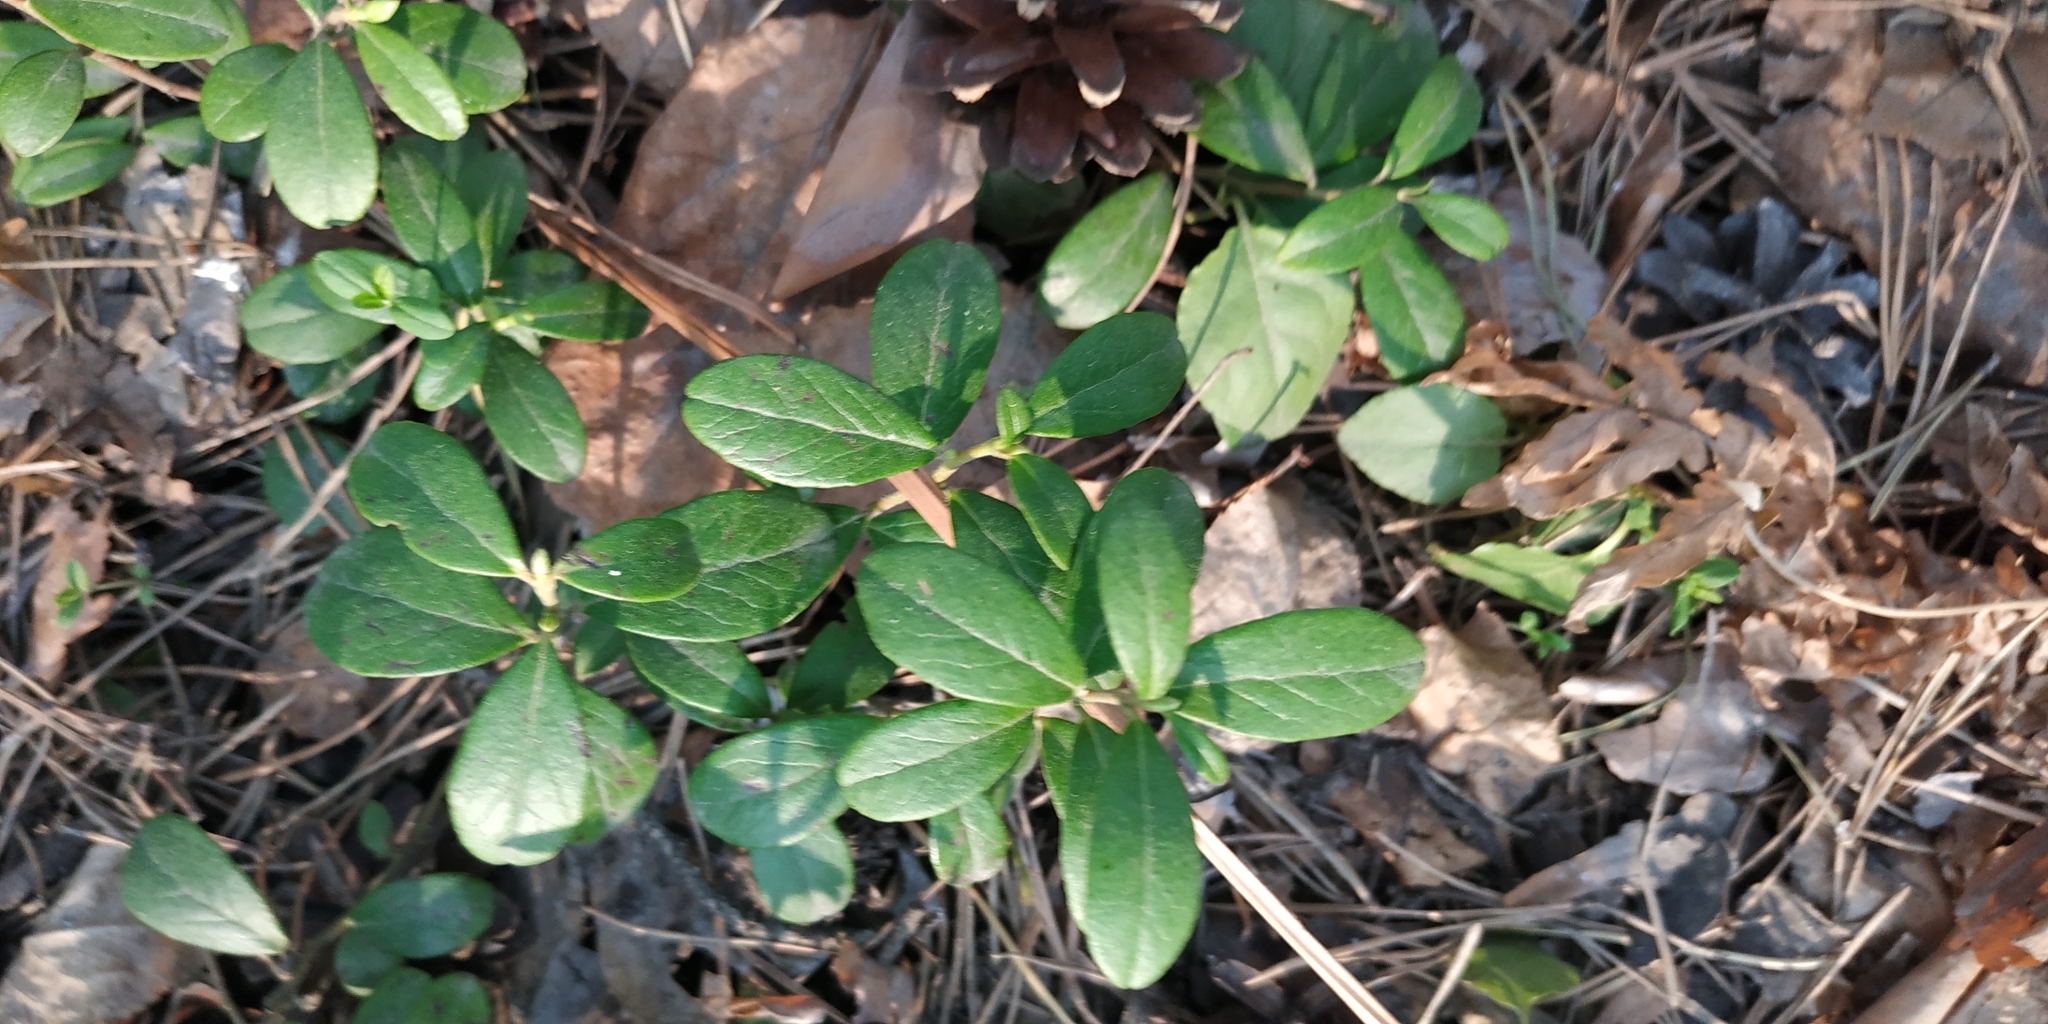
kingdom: Plantae
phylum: Tracheophyta
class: Magnoliopsida
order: Ericales
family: Ericaceae
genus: Vaccinium
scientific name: Vaccinium vitis-idaea
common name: Cowberry
